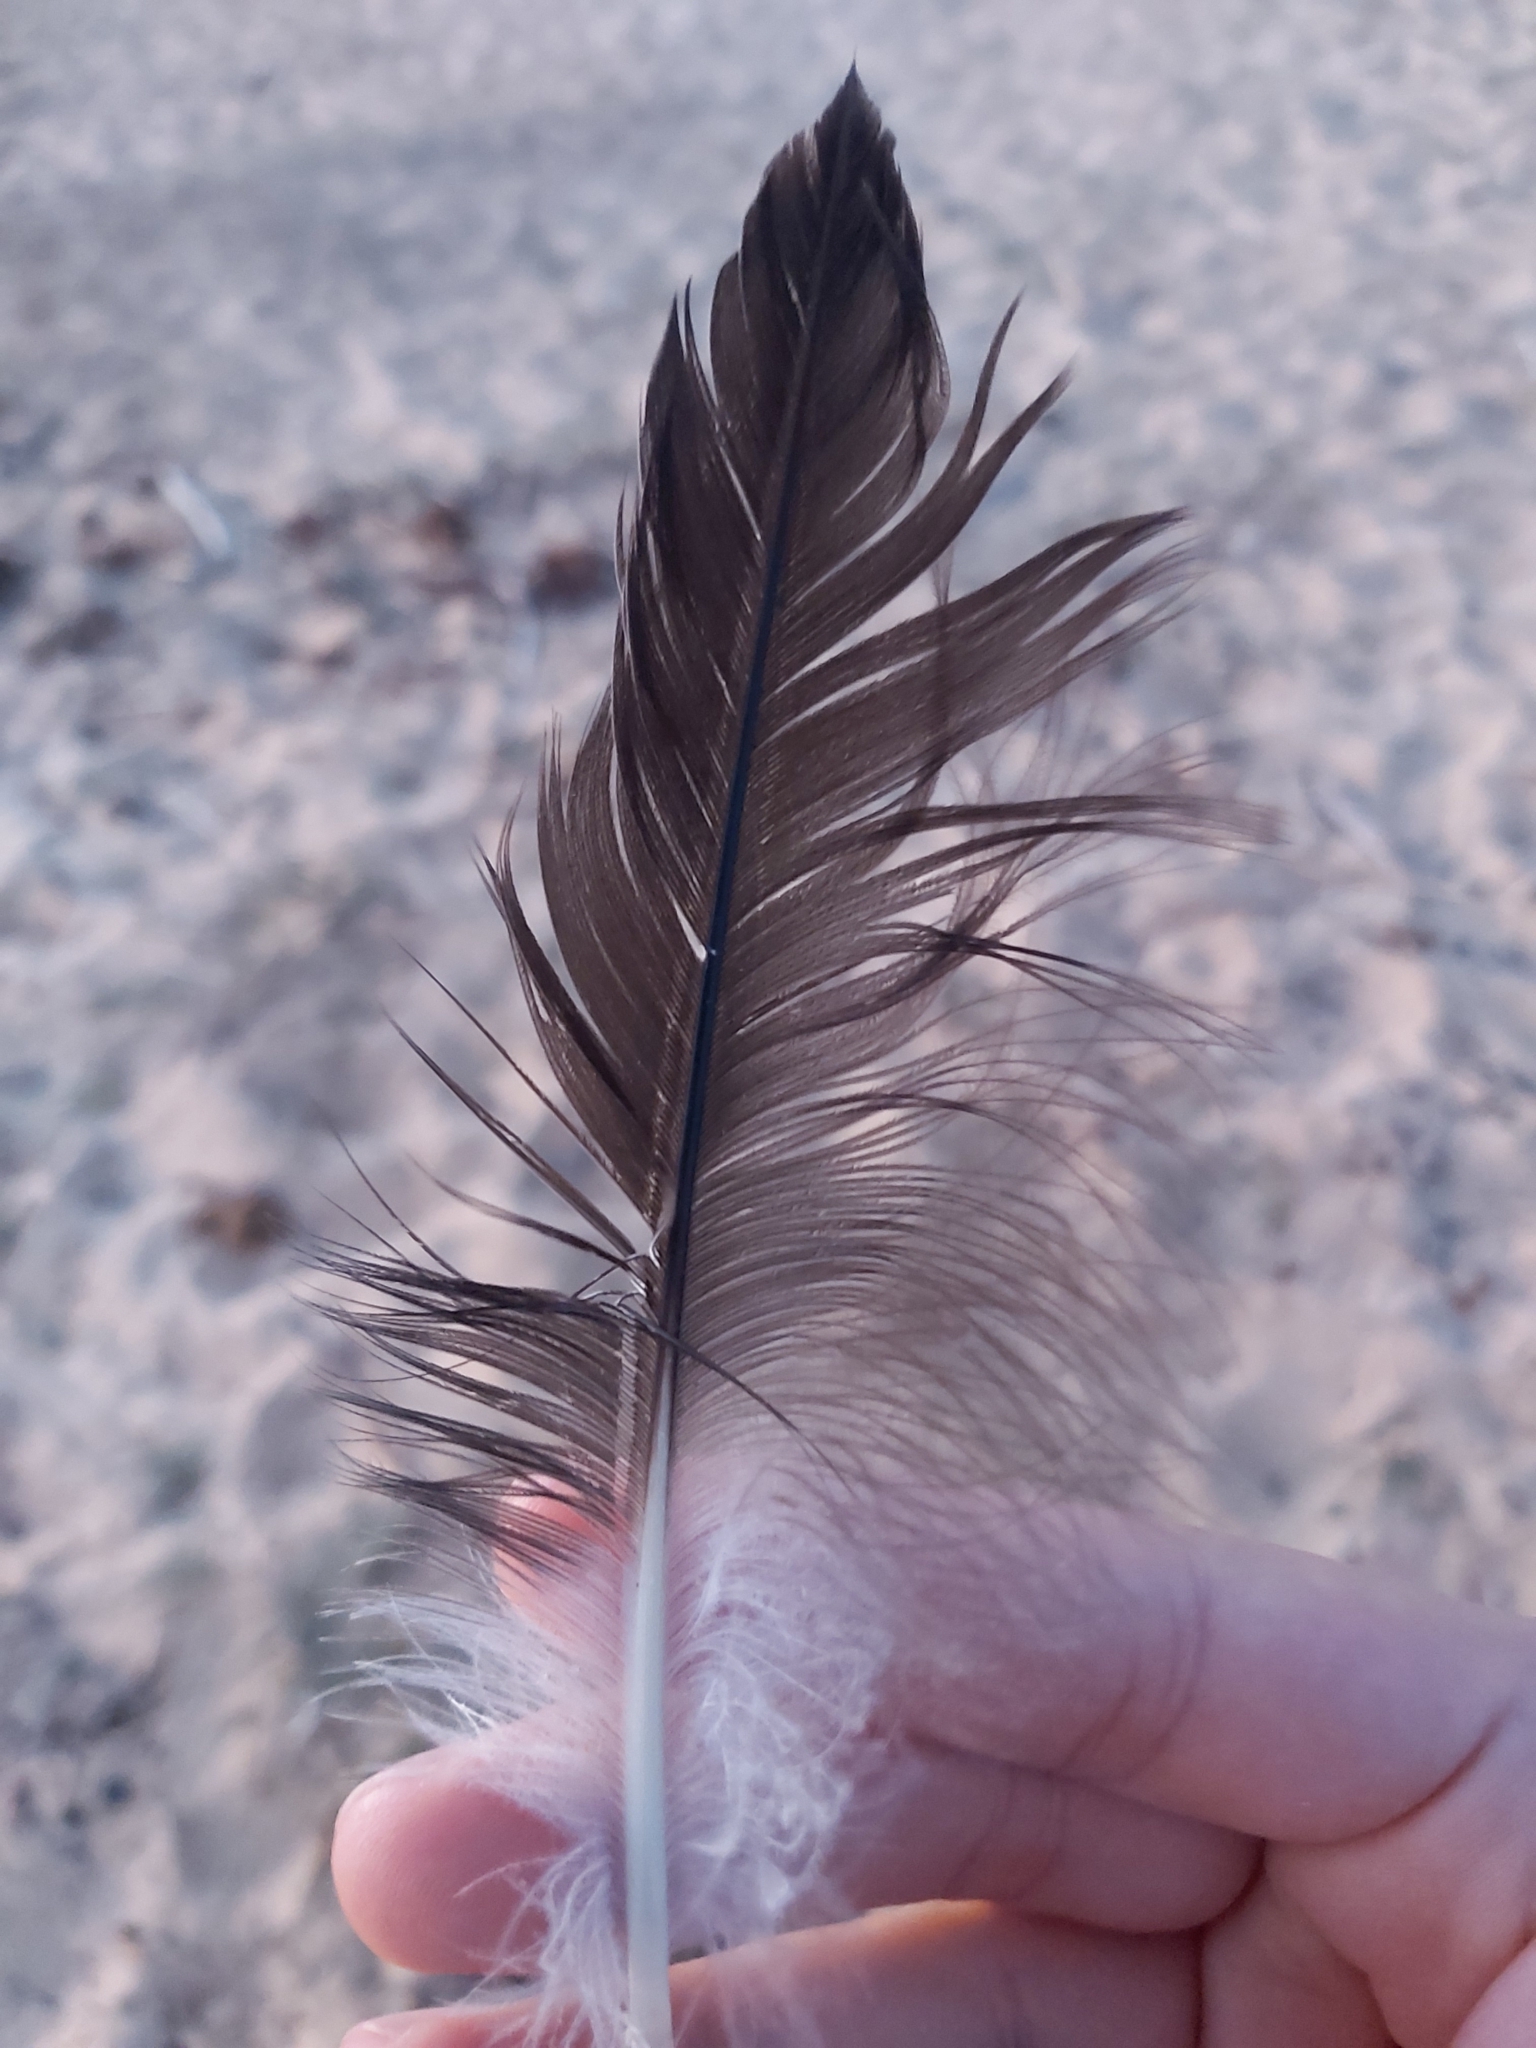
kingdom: Animalia
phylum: Chordata
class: Aves
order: Suliformes
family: Sulidae
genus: Morus
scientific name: Morus serrator
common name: Australasian gannet
